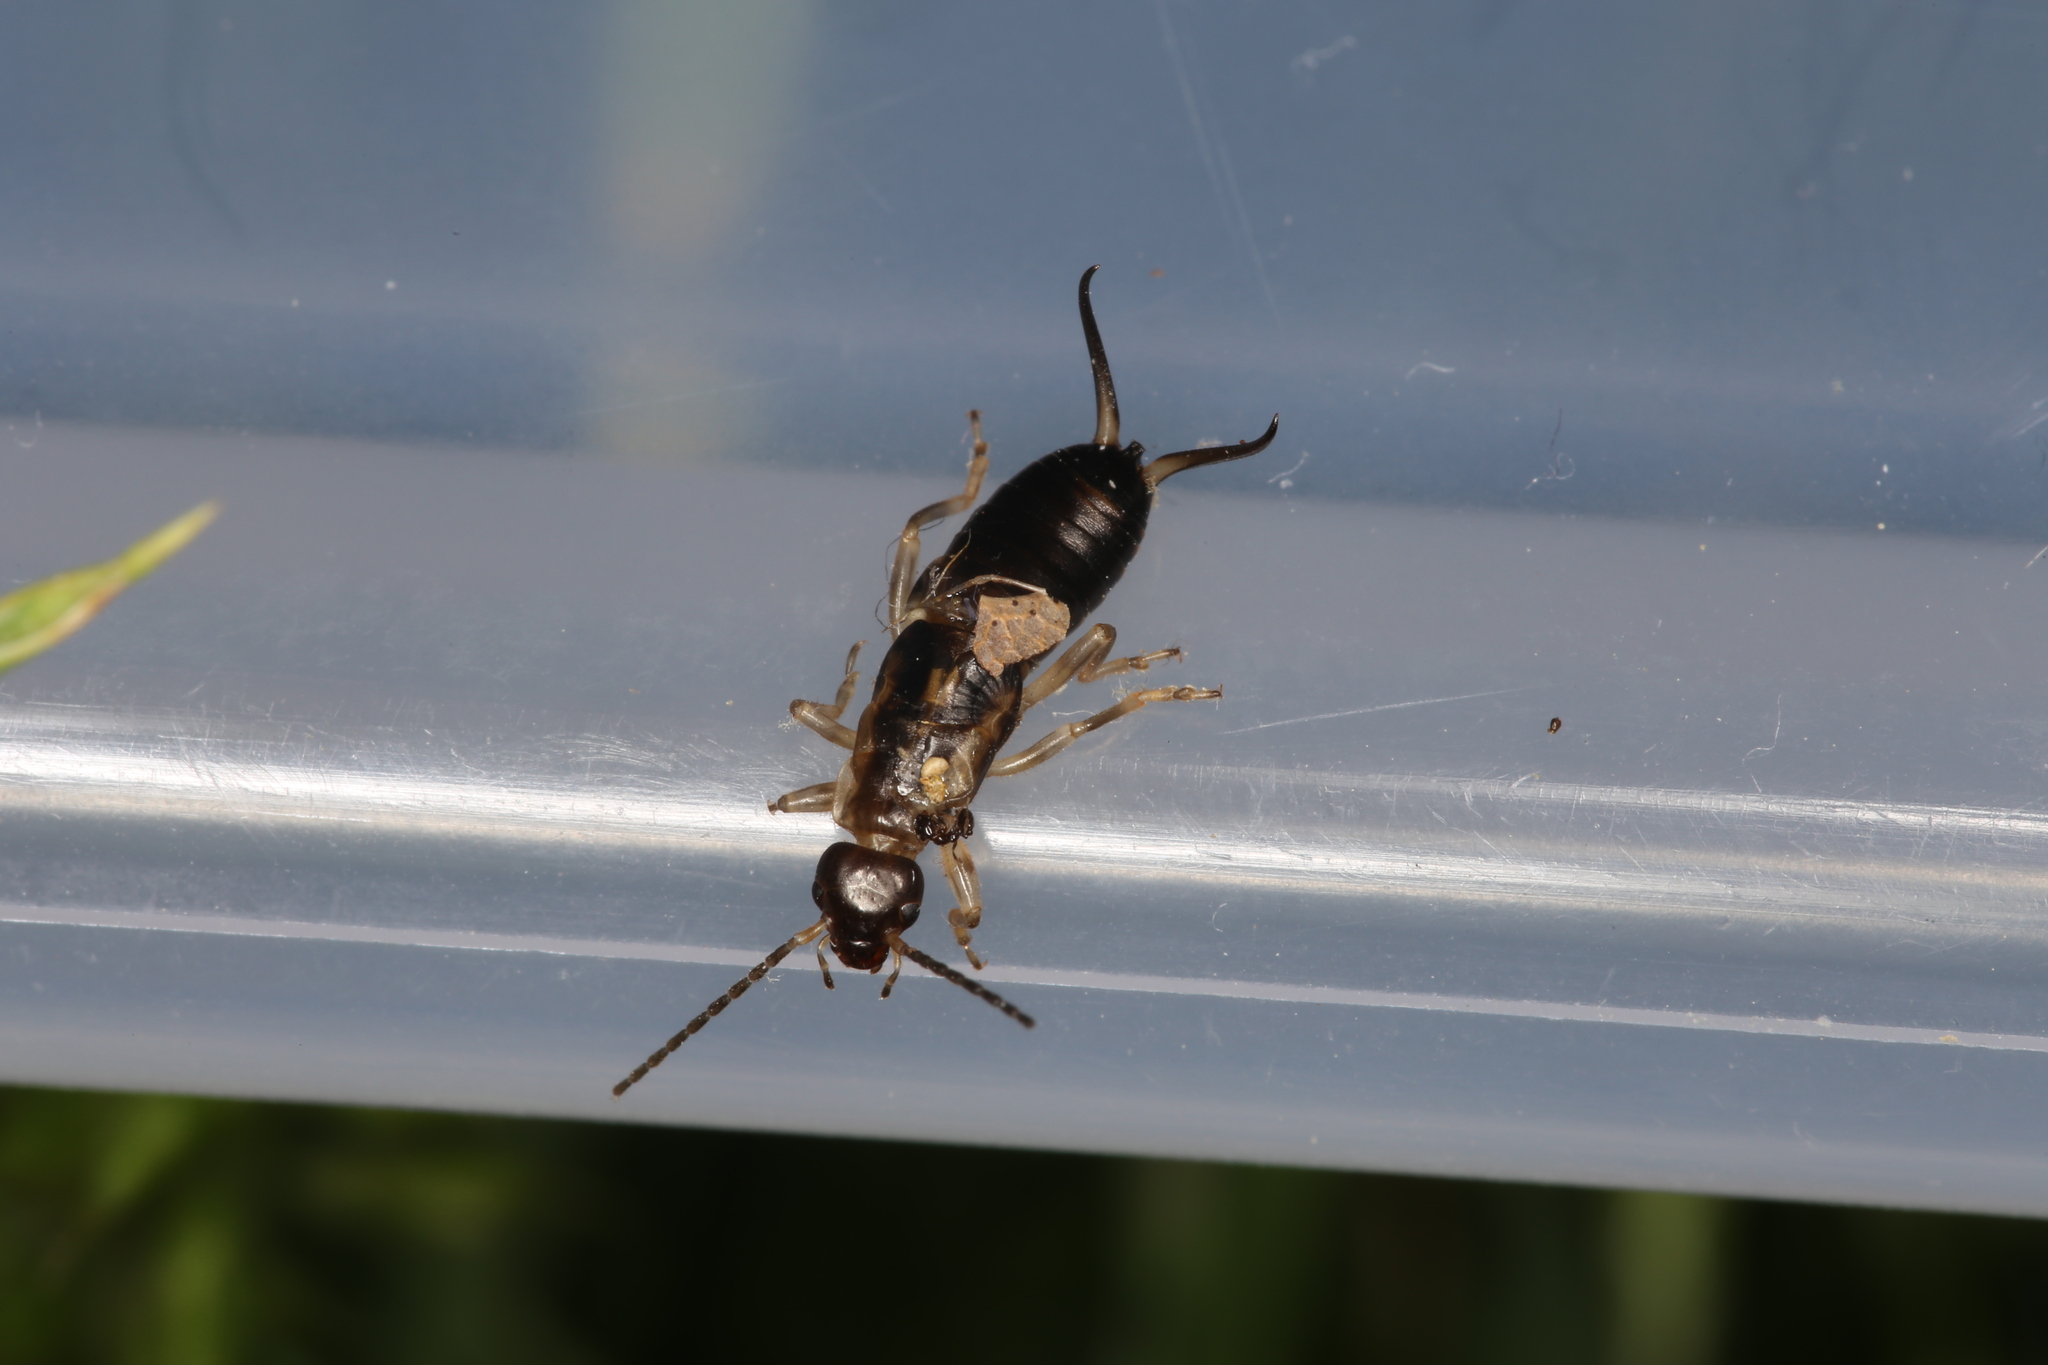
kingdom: Animalia
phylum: Arthropoda
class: Insecta
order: Dermaptera
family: Forficulidae
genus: Forficula
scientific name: Forficula auricularia
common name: European earwig
